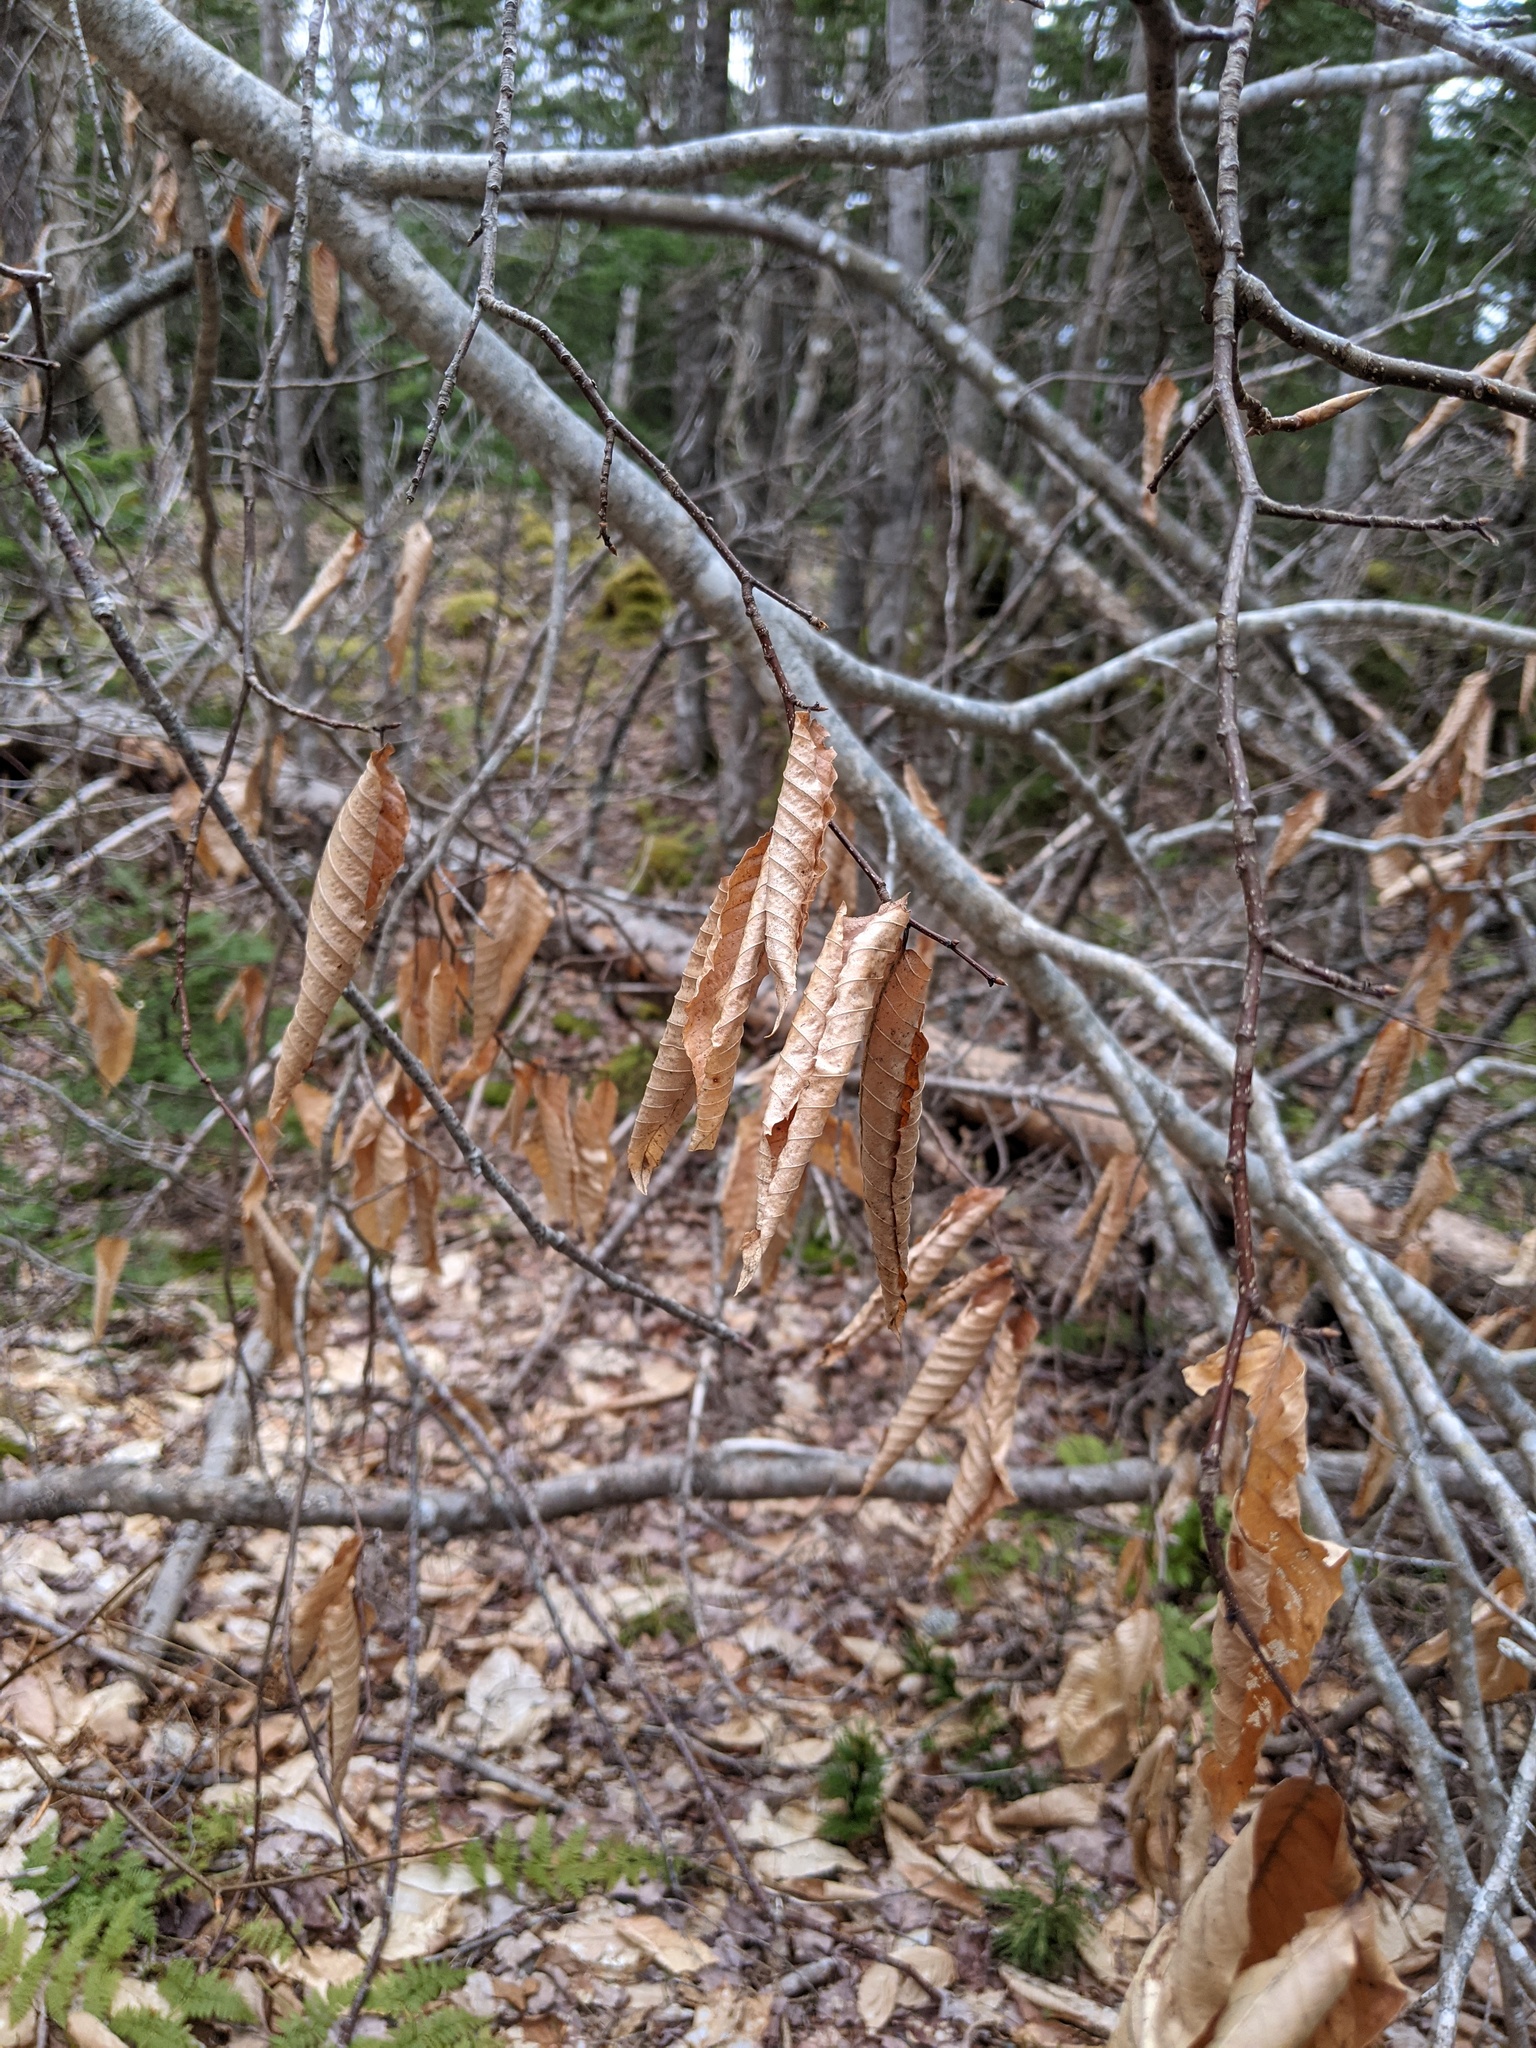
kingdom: Plantae
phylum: Tracheophyta
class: Magnoliopsida
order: Fagales
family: Fagaceae
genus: Fagus
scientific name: Fagus grandifolia
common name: American beech
